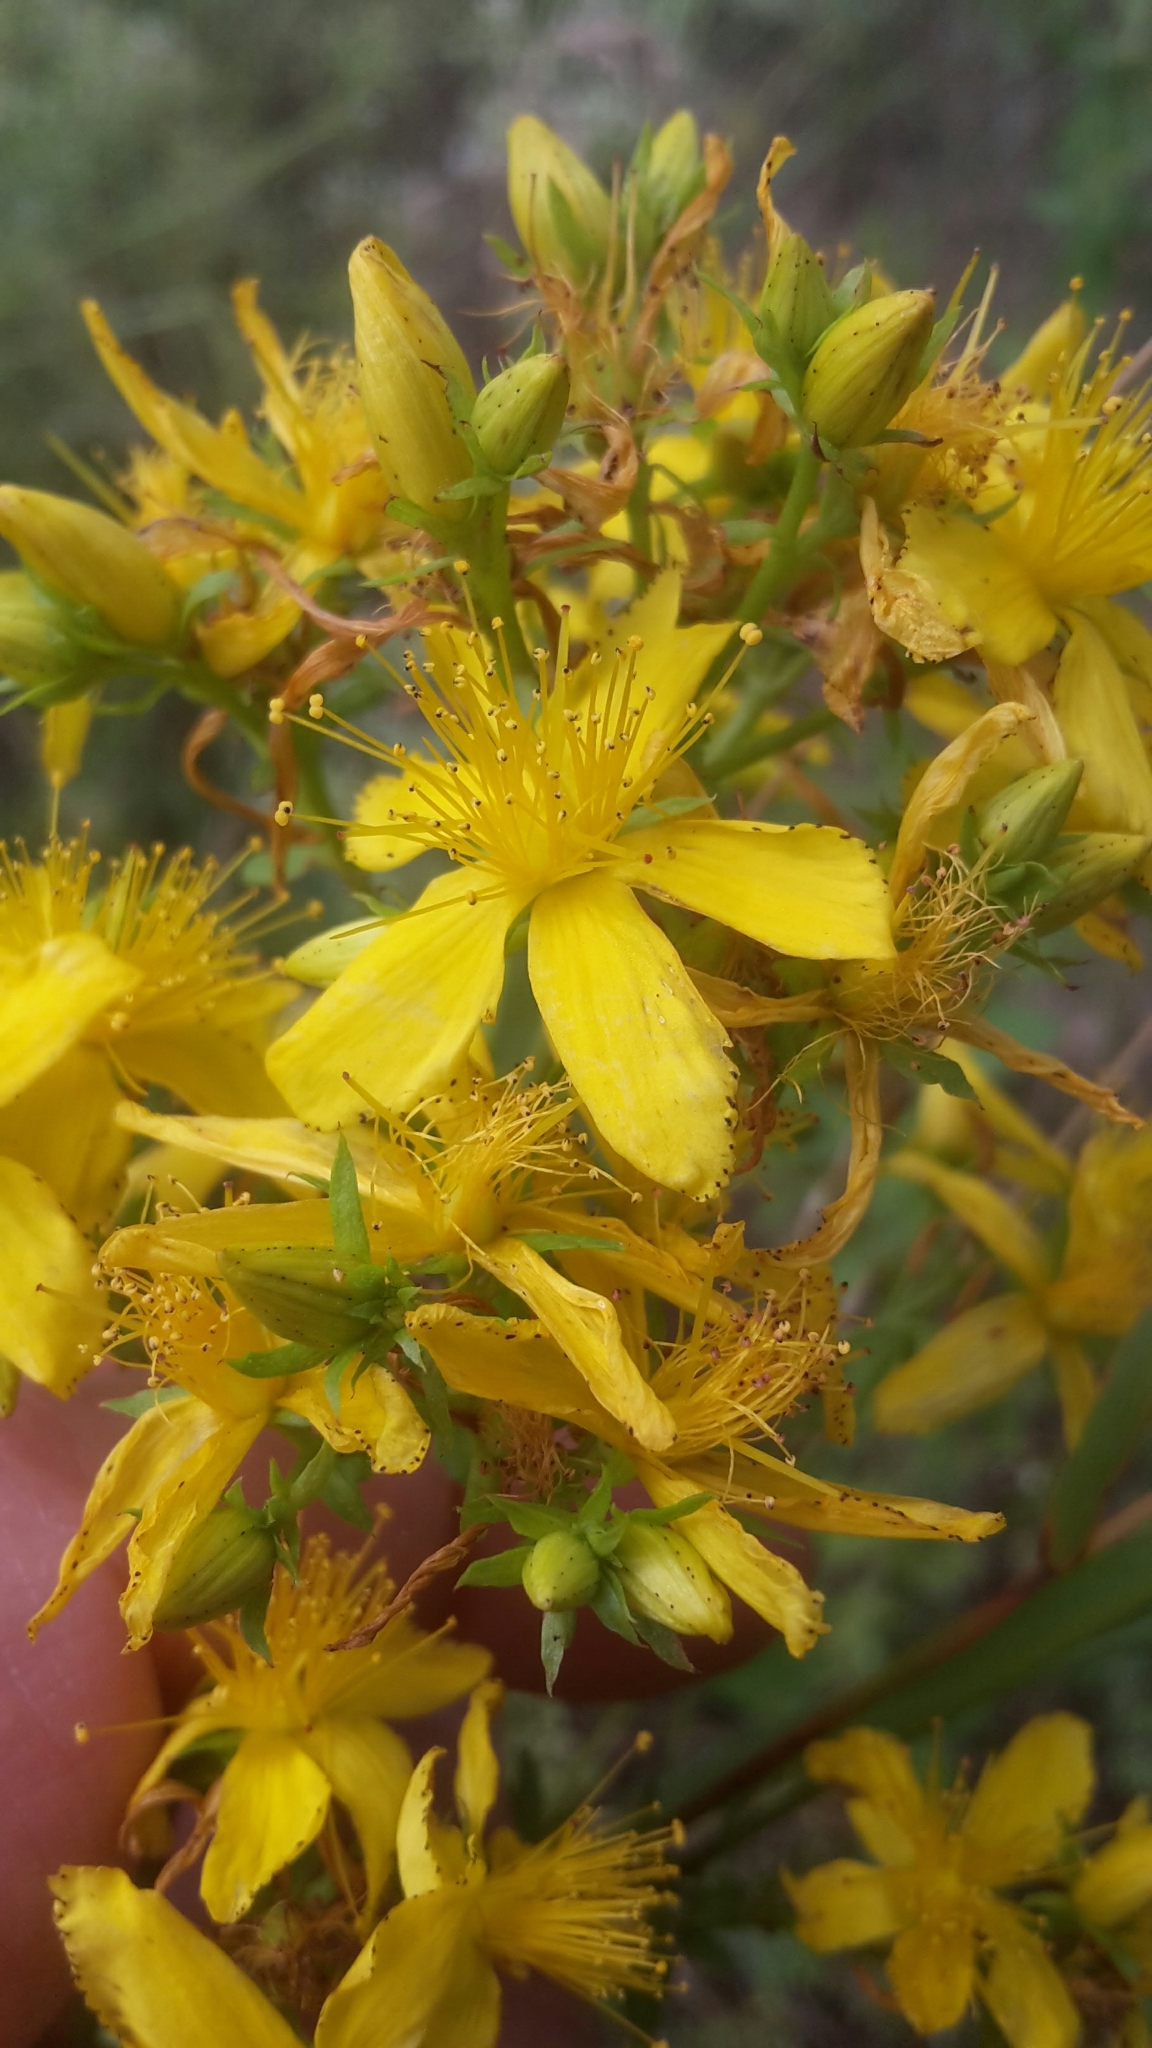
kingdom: Plantae
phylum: Tracheophyta
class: Magnoliopsida
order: Malpighiales
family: Hypericaceae
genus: Hypericum
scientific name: Hypericum perforatum
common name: Common st. johnswort
